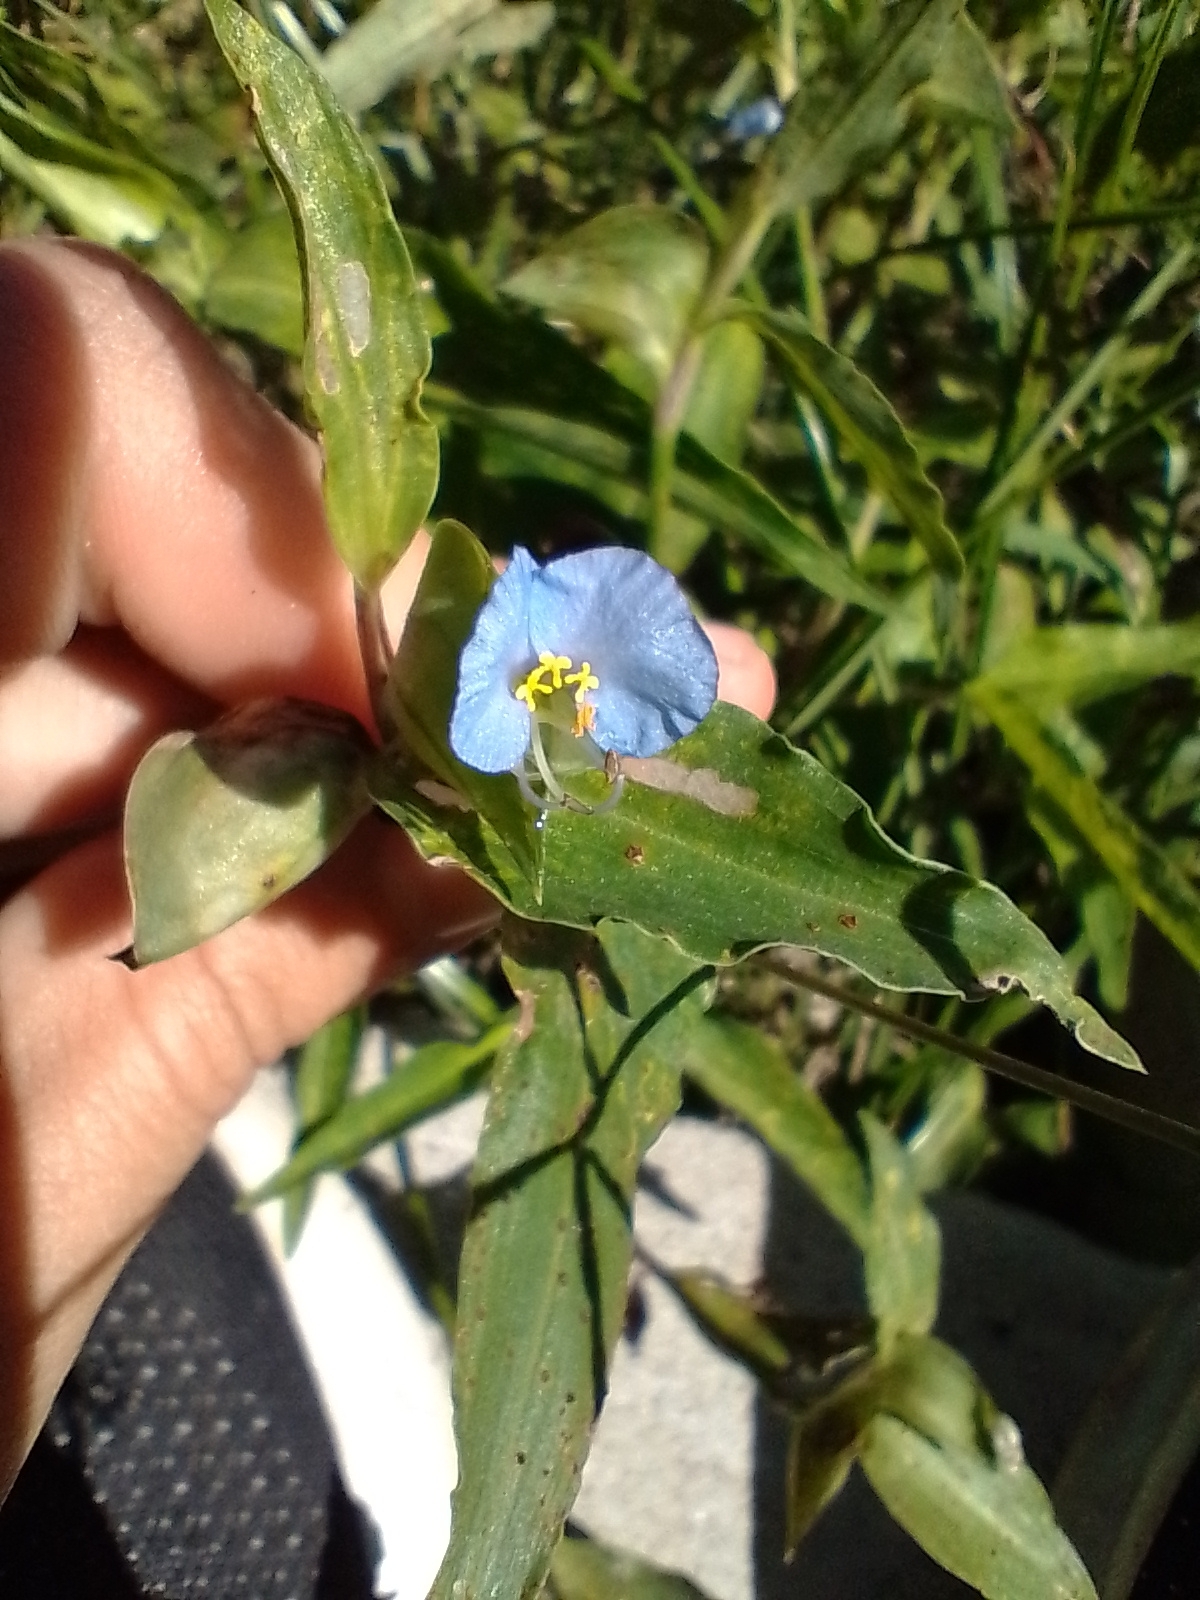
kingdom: Plantae
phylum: Tracheophyta
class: Liliopsida
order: Commelinales
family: Commelinaceae
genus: Commelina
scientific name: Commelina erecta
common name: Blousel blommetjie
